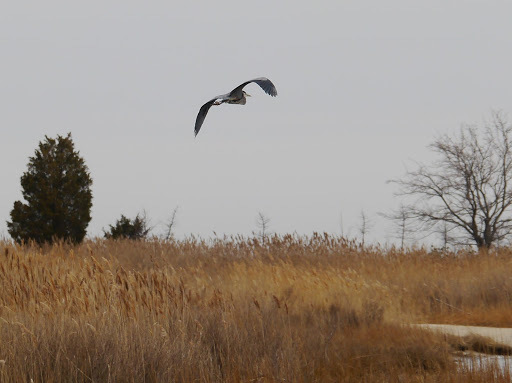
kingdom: Animalia
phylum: Chordata
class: Aves
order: Pelecaniformes
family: Ardeidae
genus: Ardea
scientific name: Ardea herodias
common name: Great blue heron
